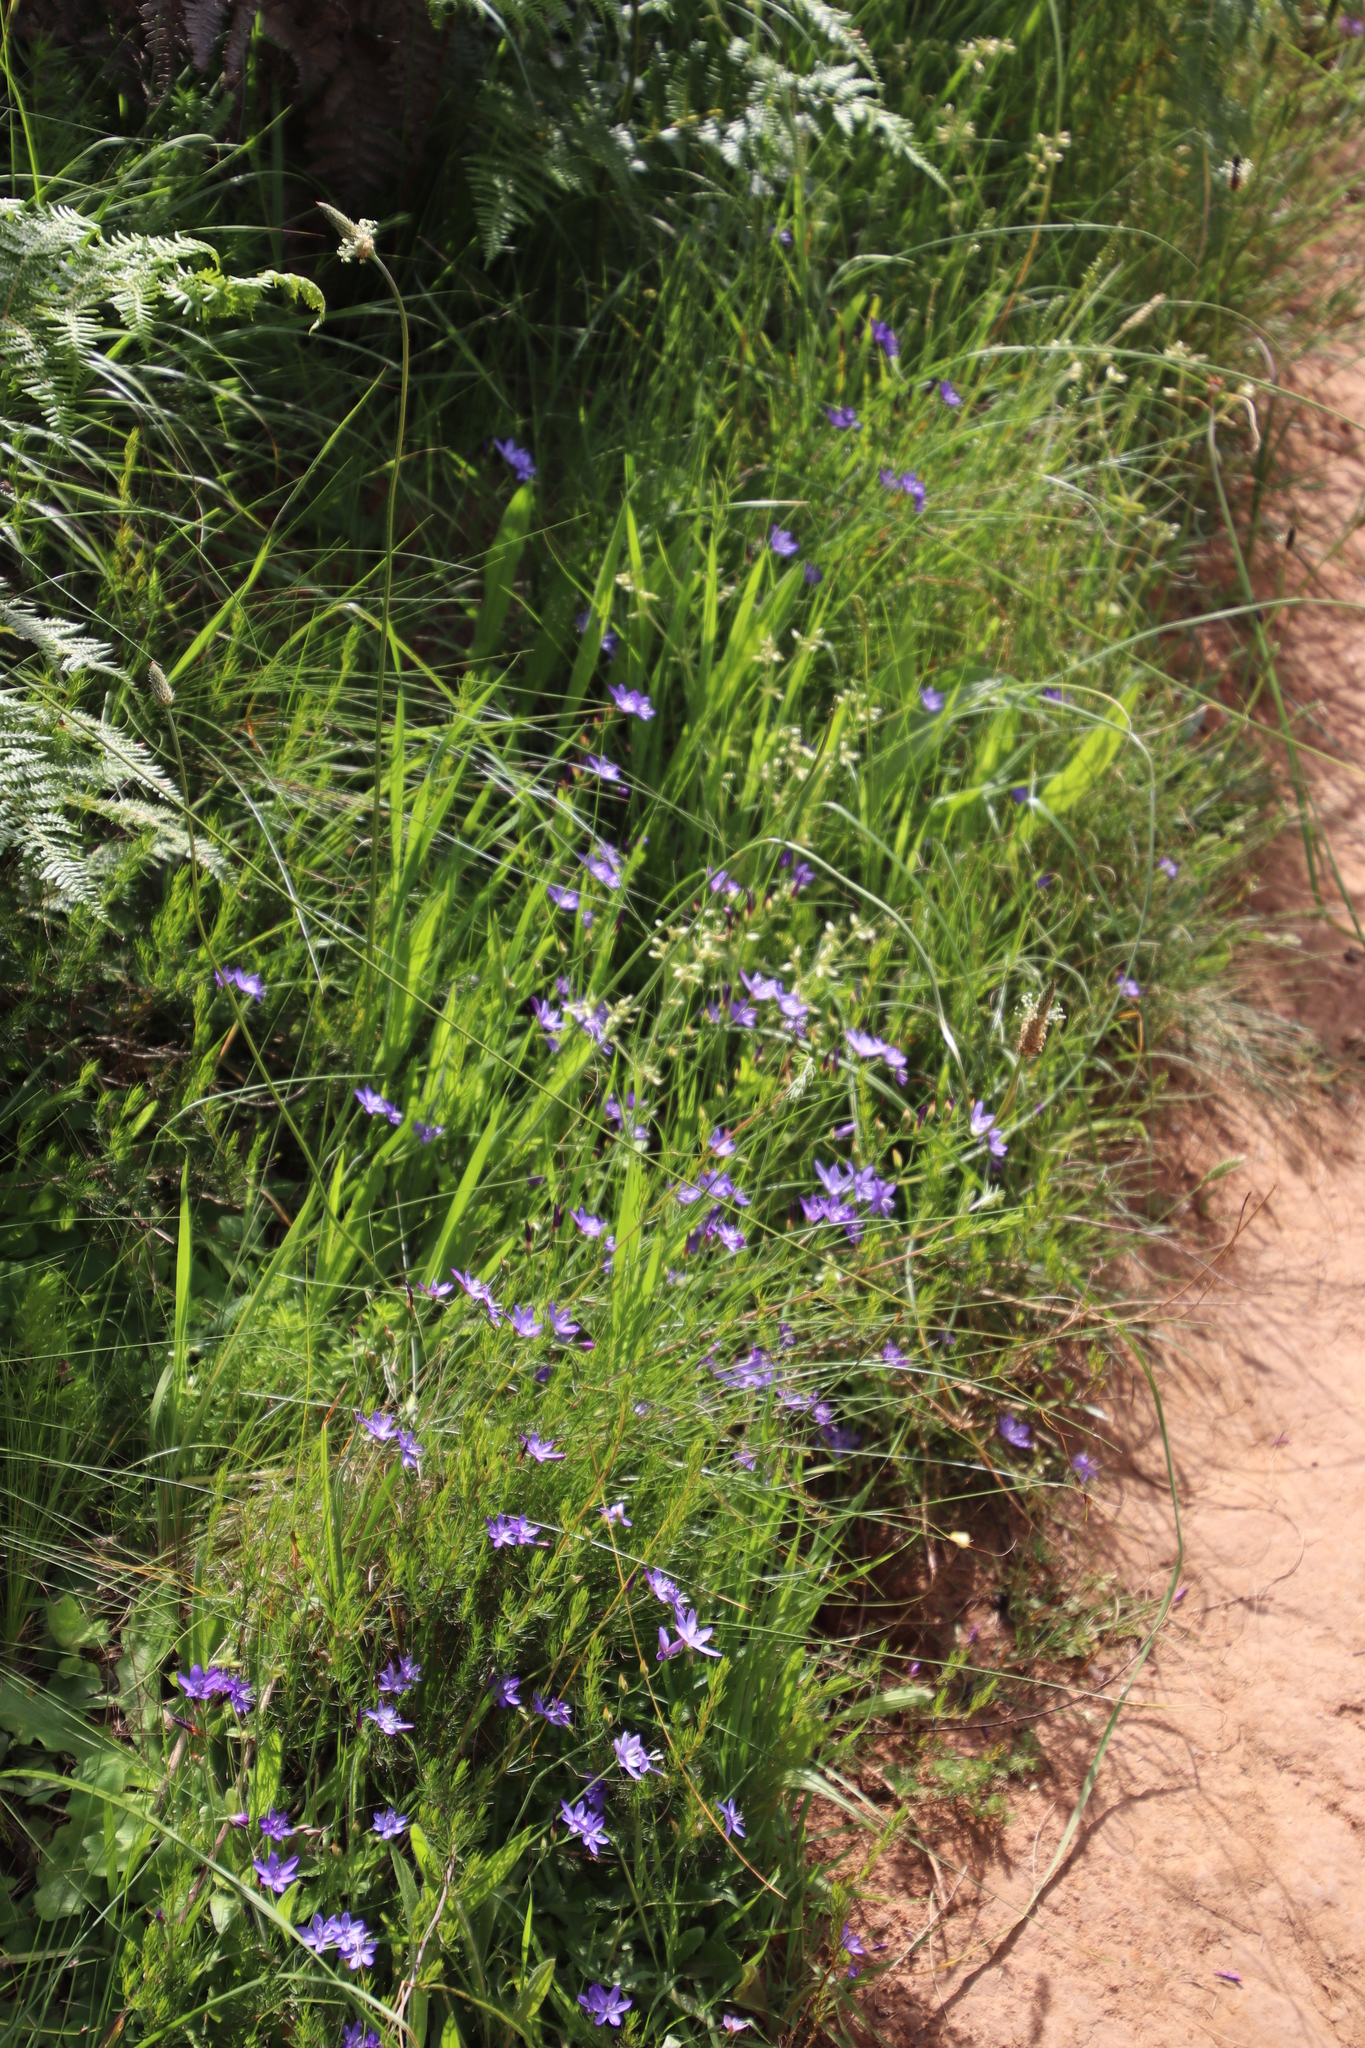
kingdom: Plantae
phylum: Tracheophyta
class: Magnoliopsida
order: Lamiales
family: Plantaginaceae
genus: Plantago
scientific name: Plantago lanceolata
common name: Ribwort plantain
